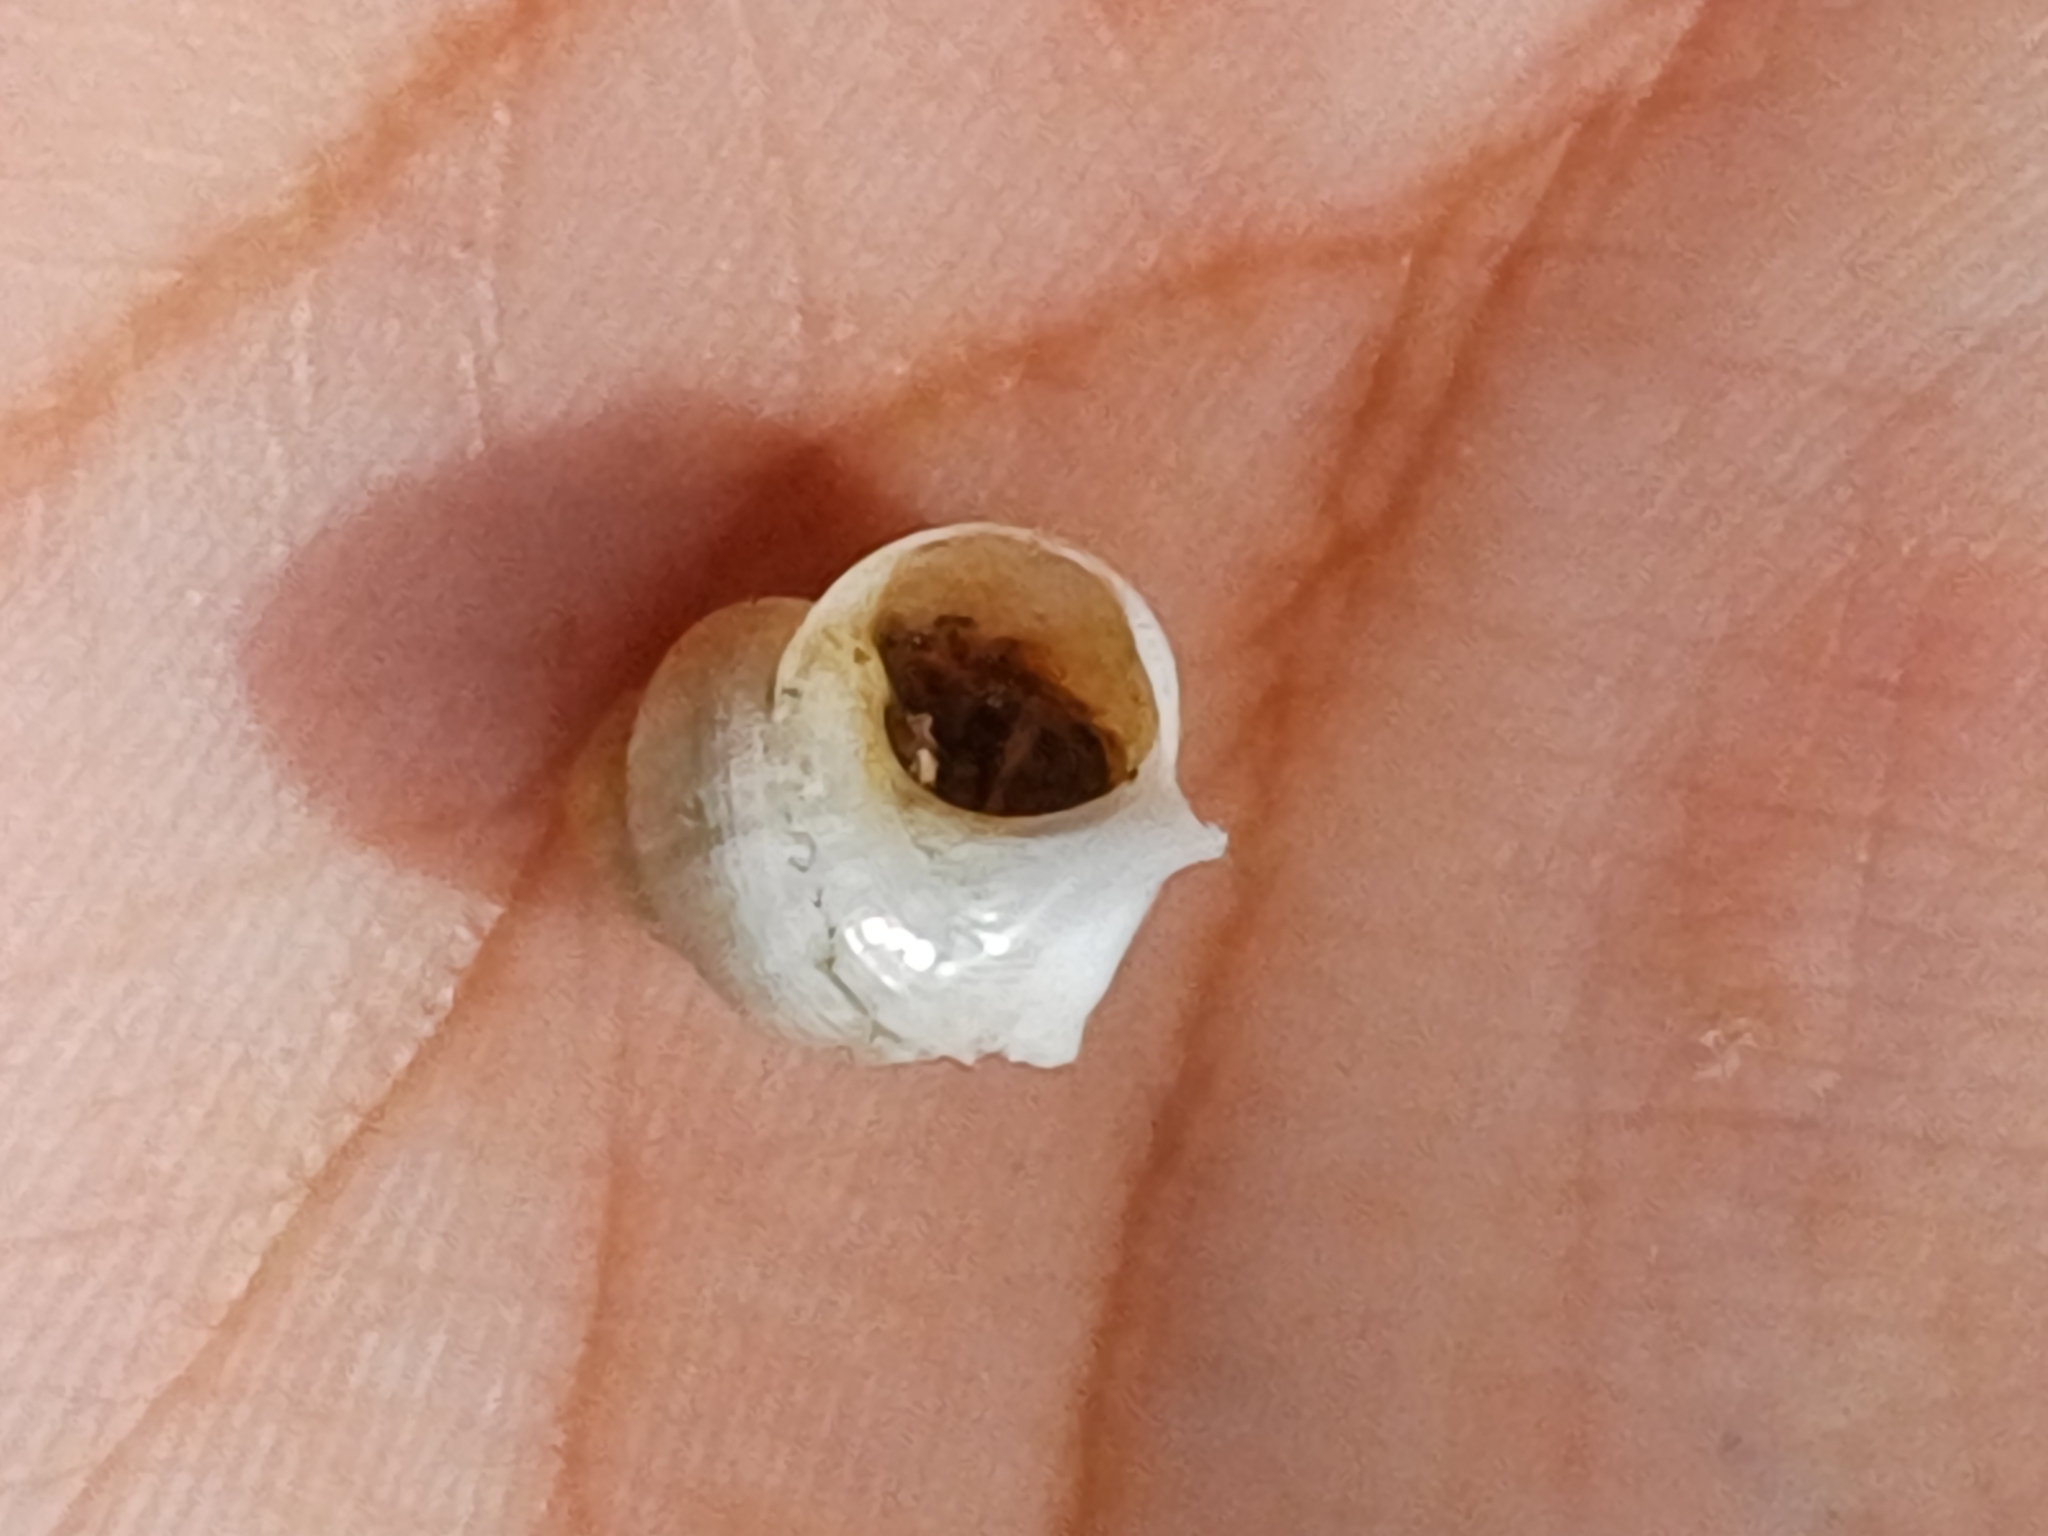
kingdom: Animalia
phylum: Mollusca
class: Gastropoda
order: Littorinimorpha
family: Pomatiidae
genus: Pomatias
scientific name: Pomatias elegans
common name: Red-mouthed snail
